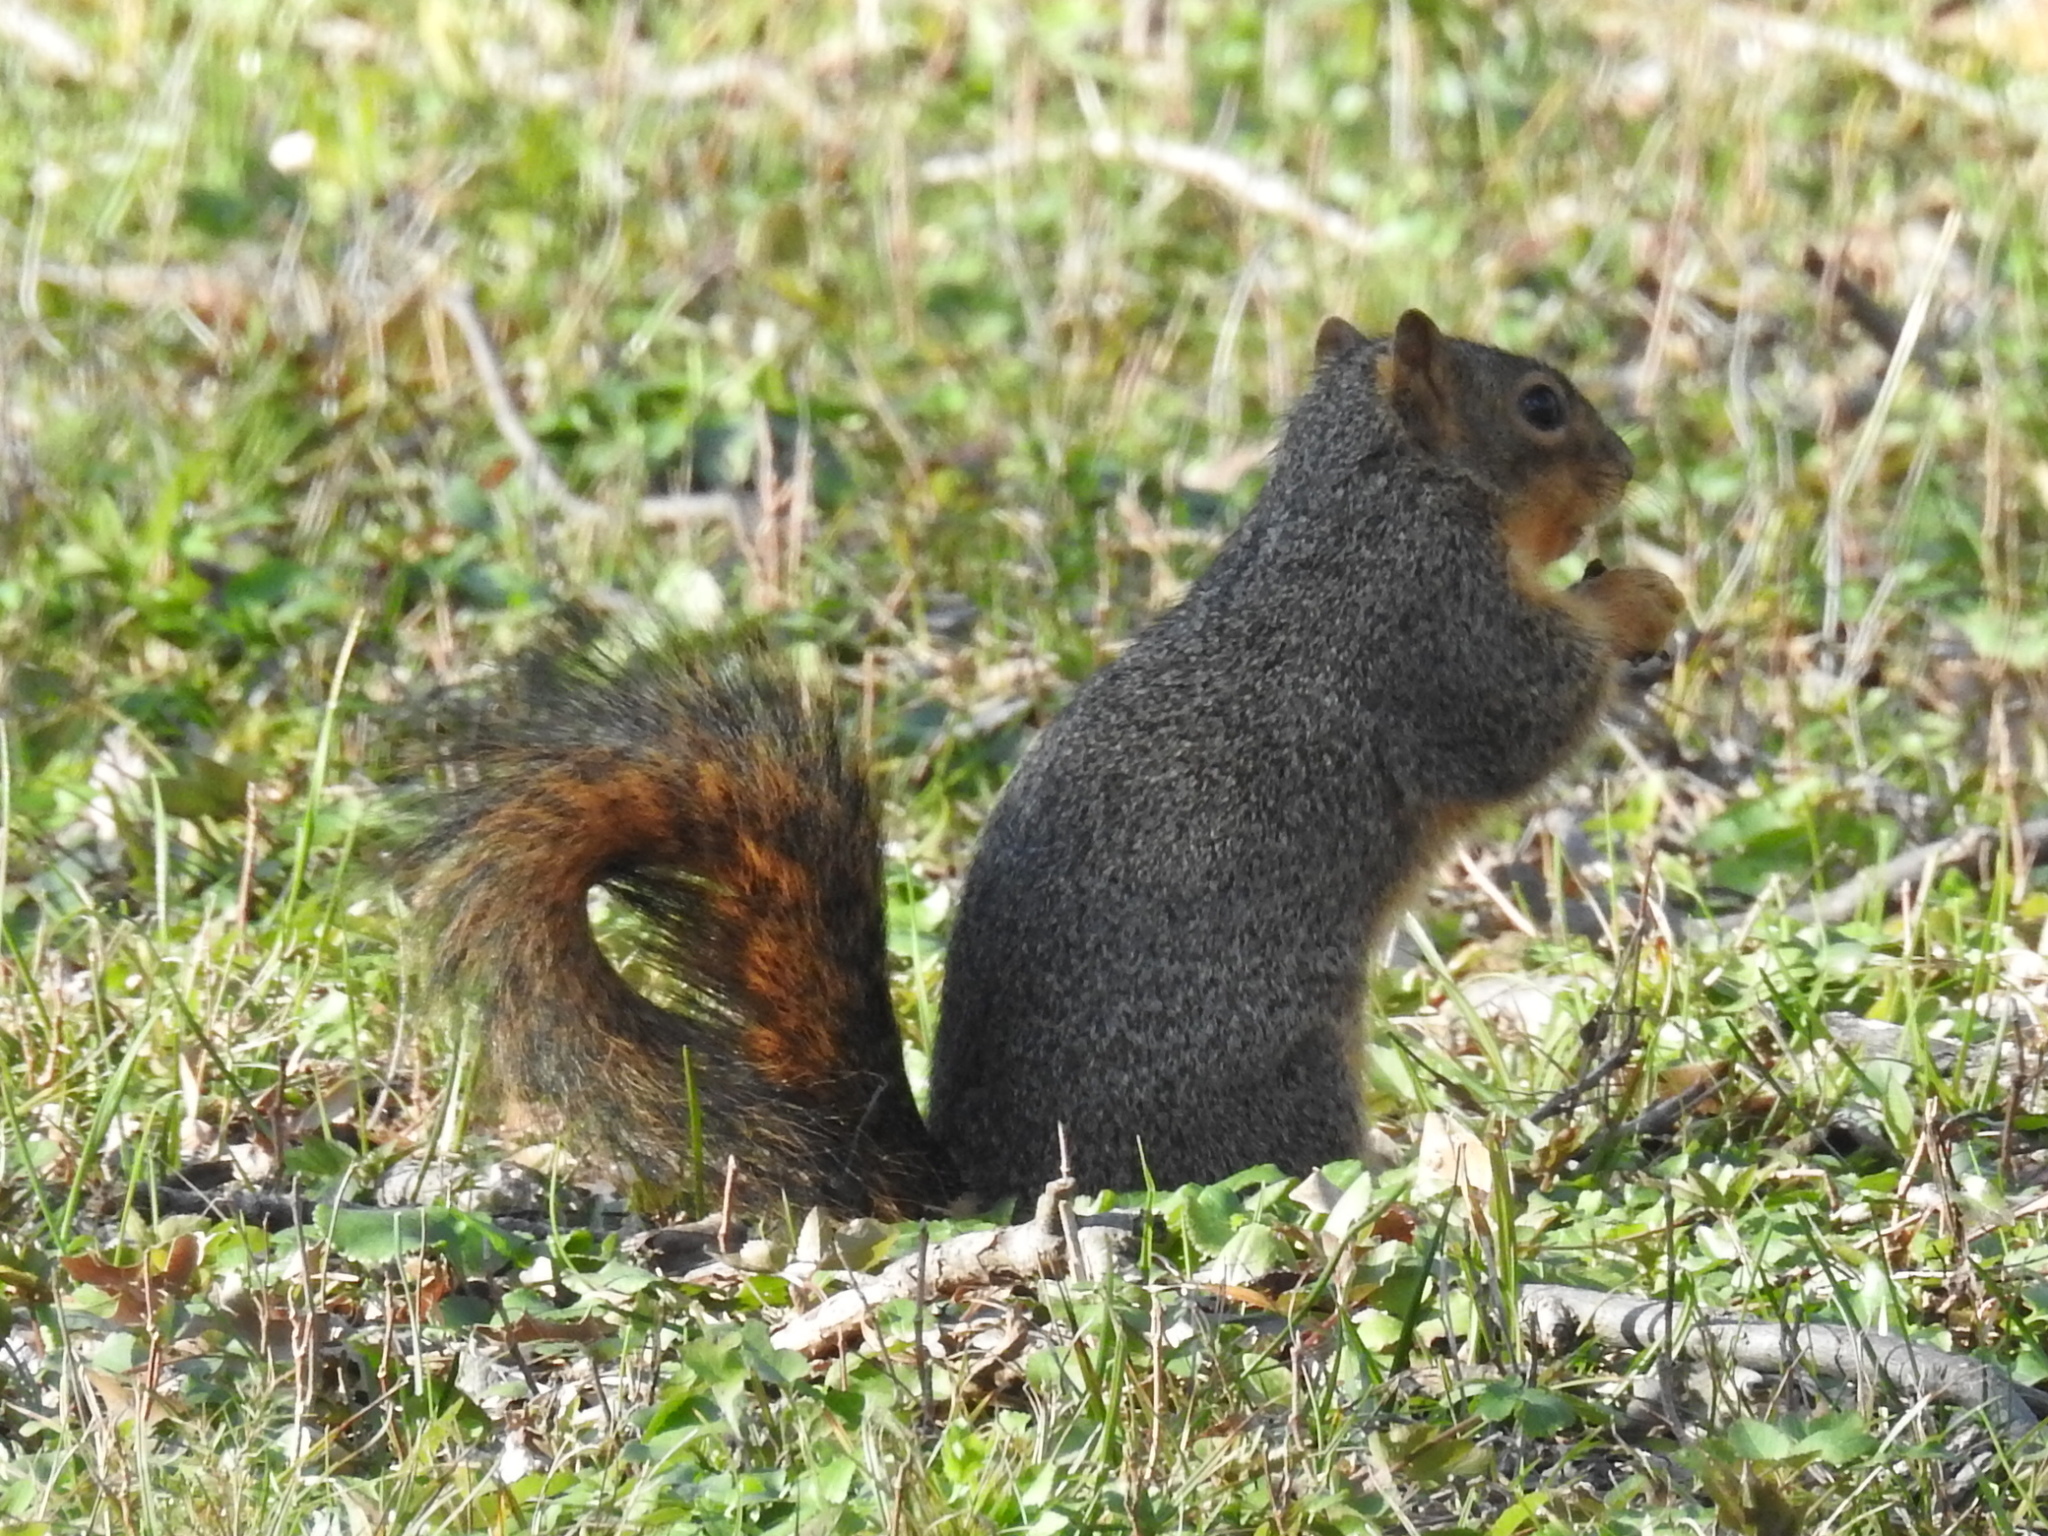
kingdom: Animalia
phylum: Chordata
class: Mammalia
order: Rodentia
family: Sciuridae
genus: Sciurus
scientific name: Sciurus niger
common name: Fox squirrel
